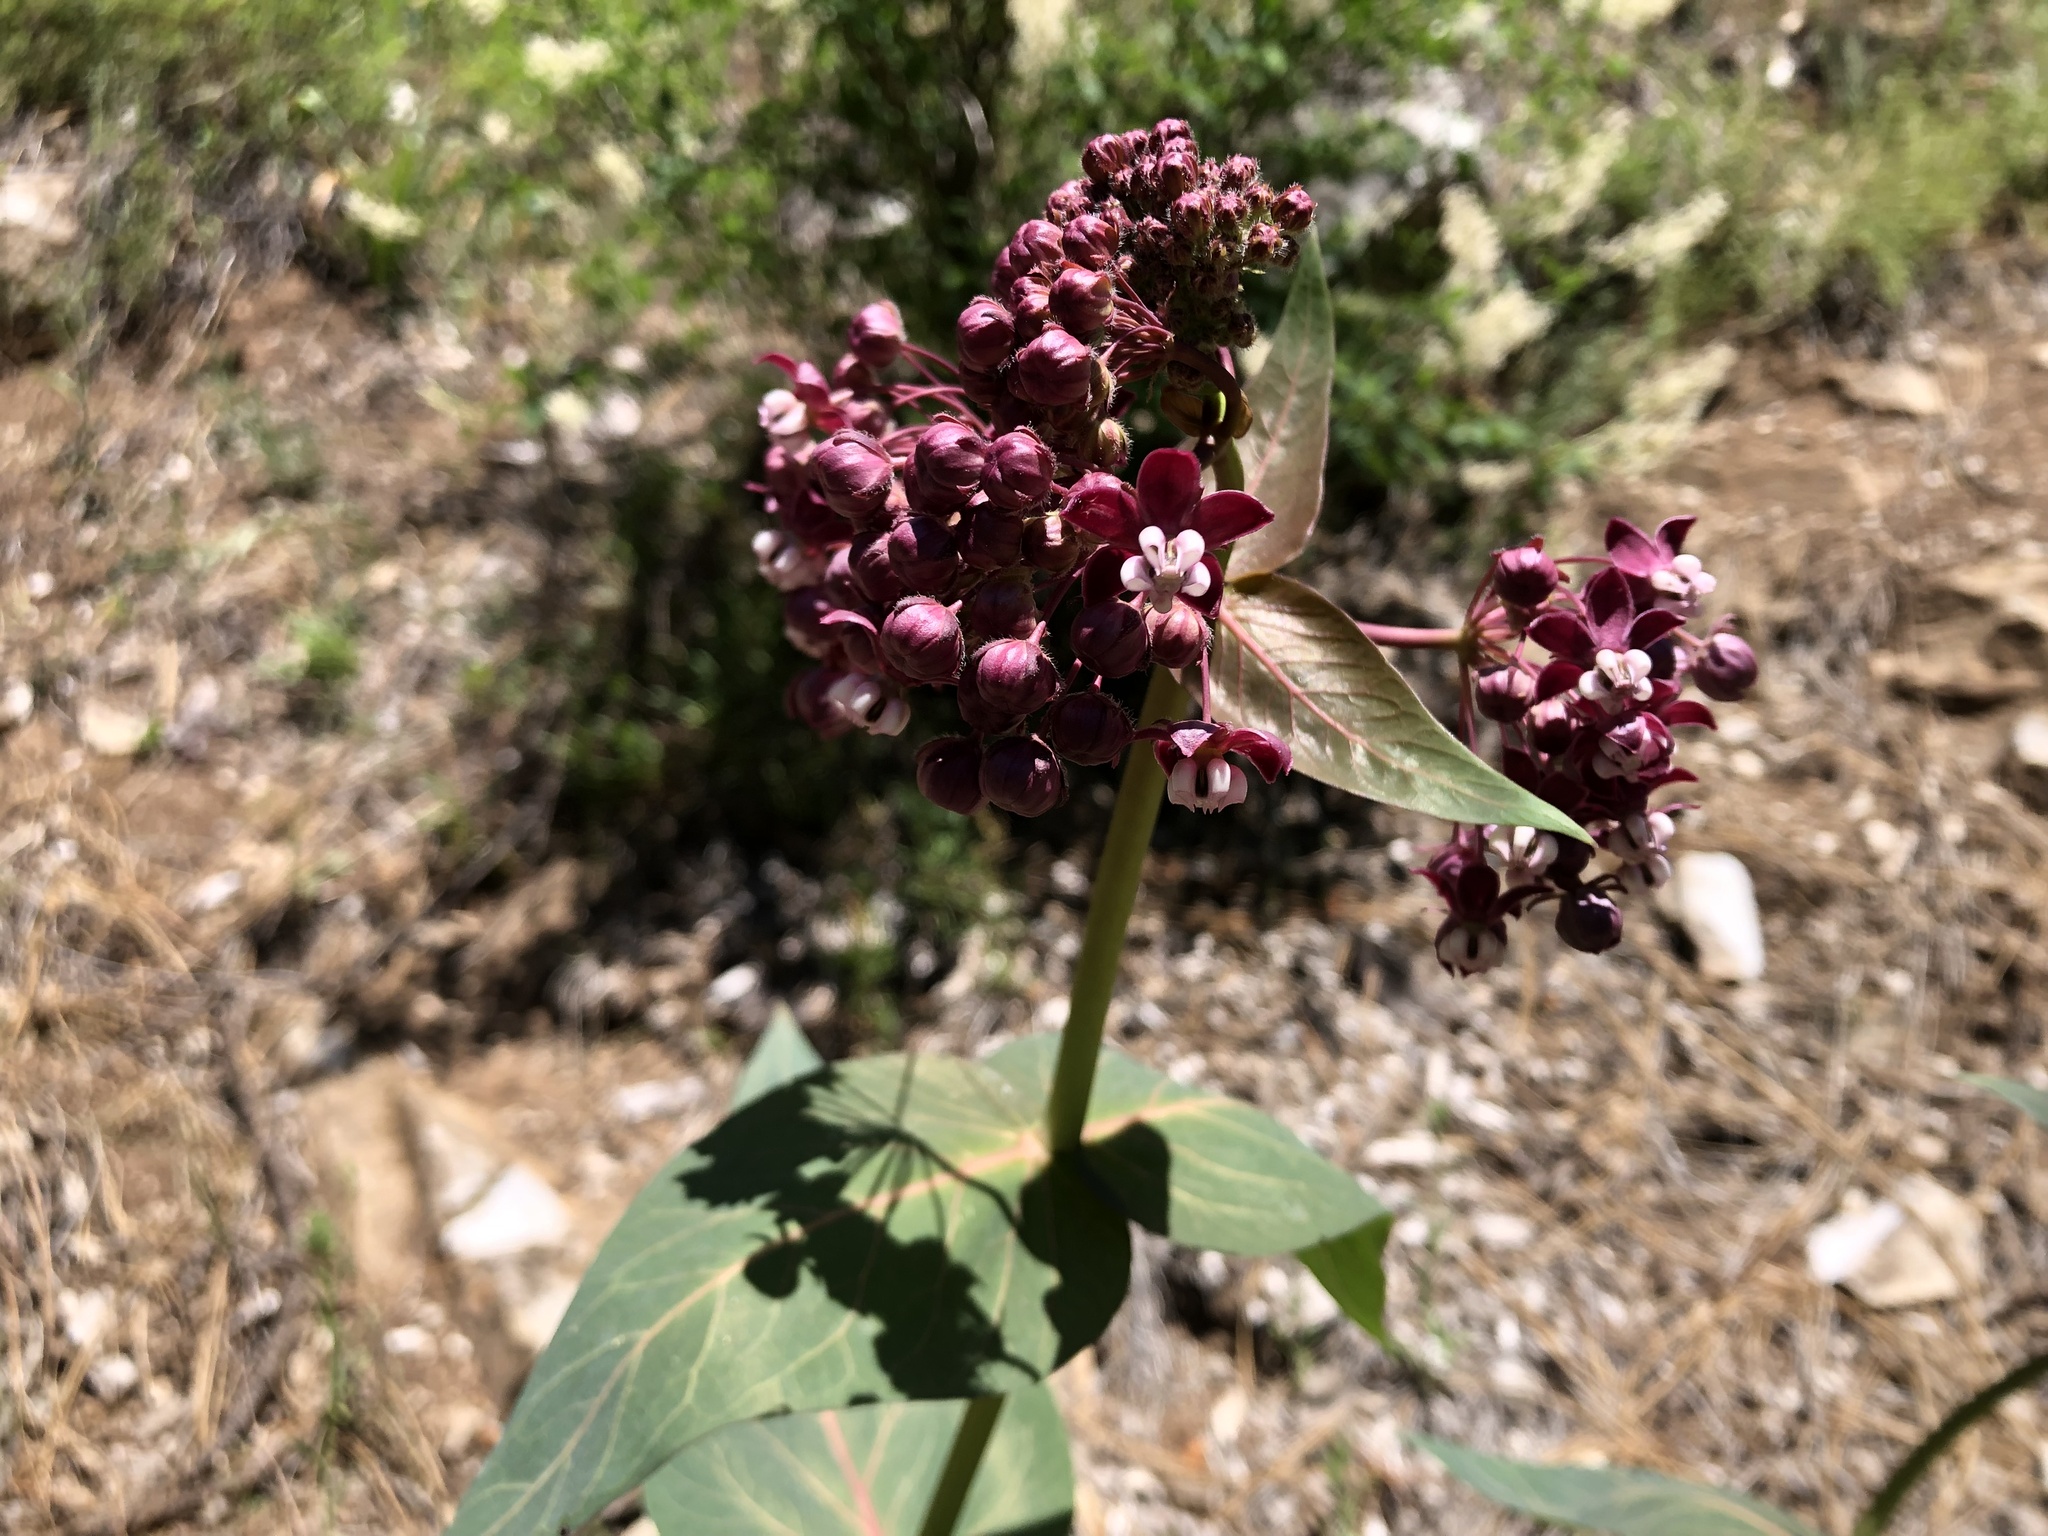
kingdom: Plantae
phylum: Tracheophyta
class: Magnoliopsida
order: Gentianales
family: Apocynaceae
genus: Asclepias
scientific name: Asclepias cordifolia
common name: Purple milkweed
